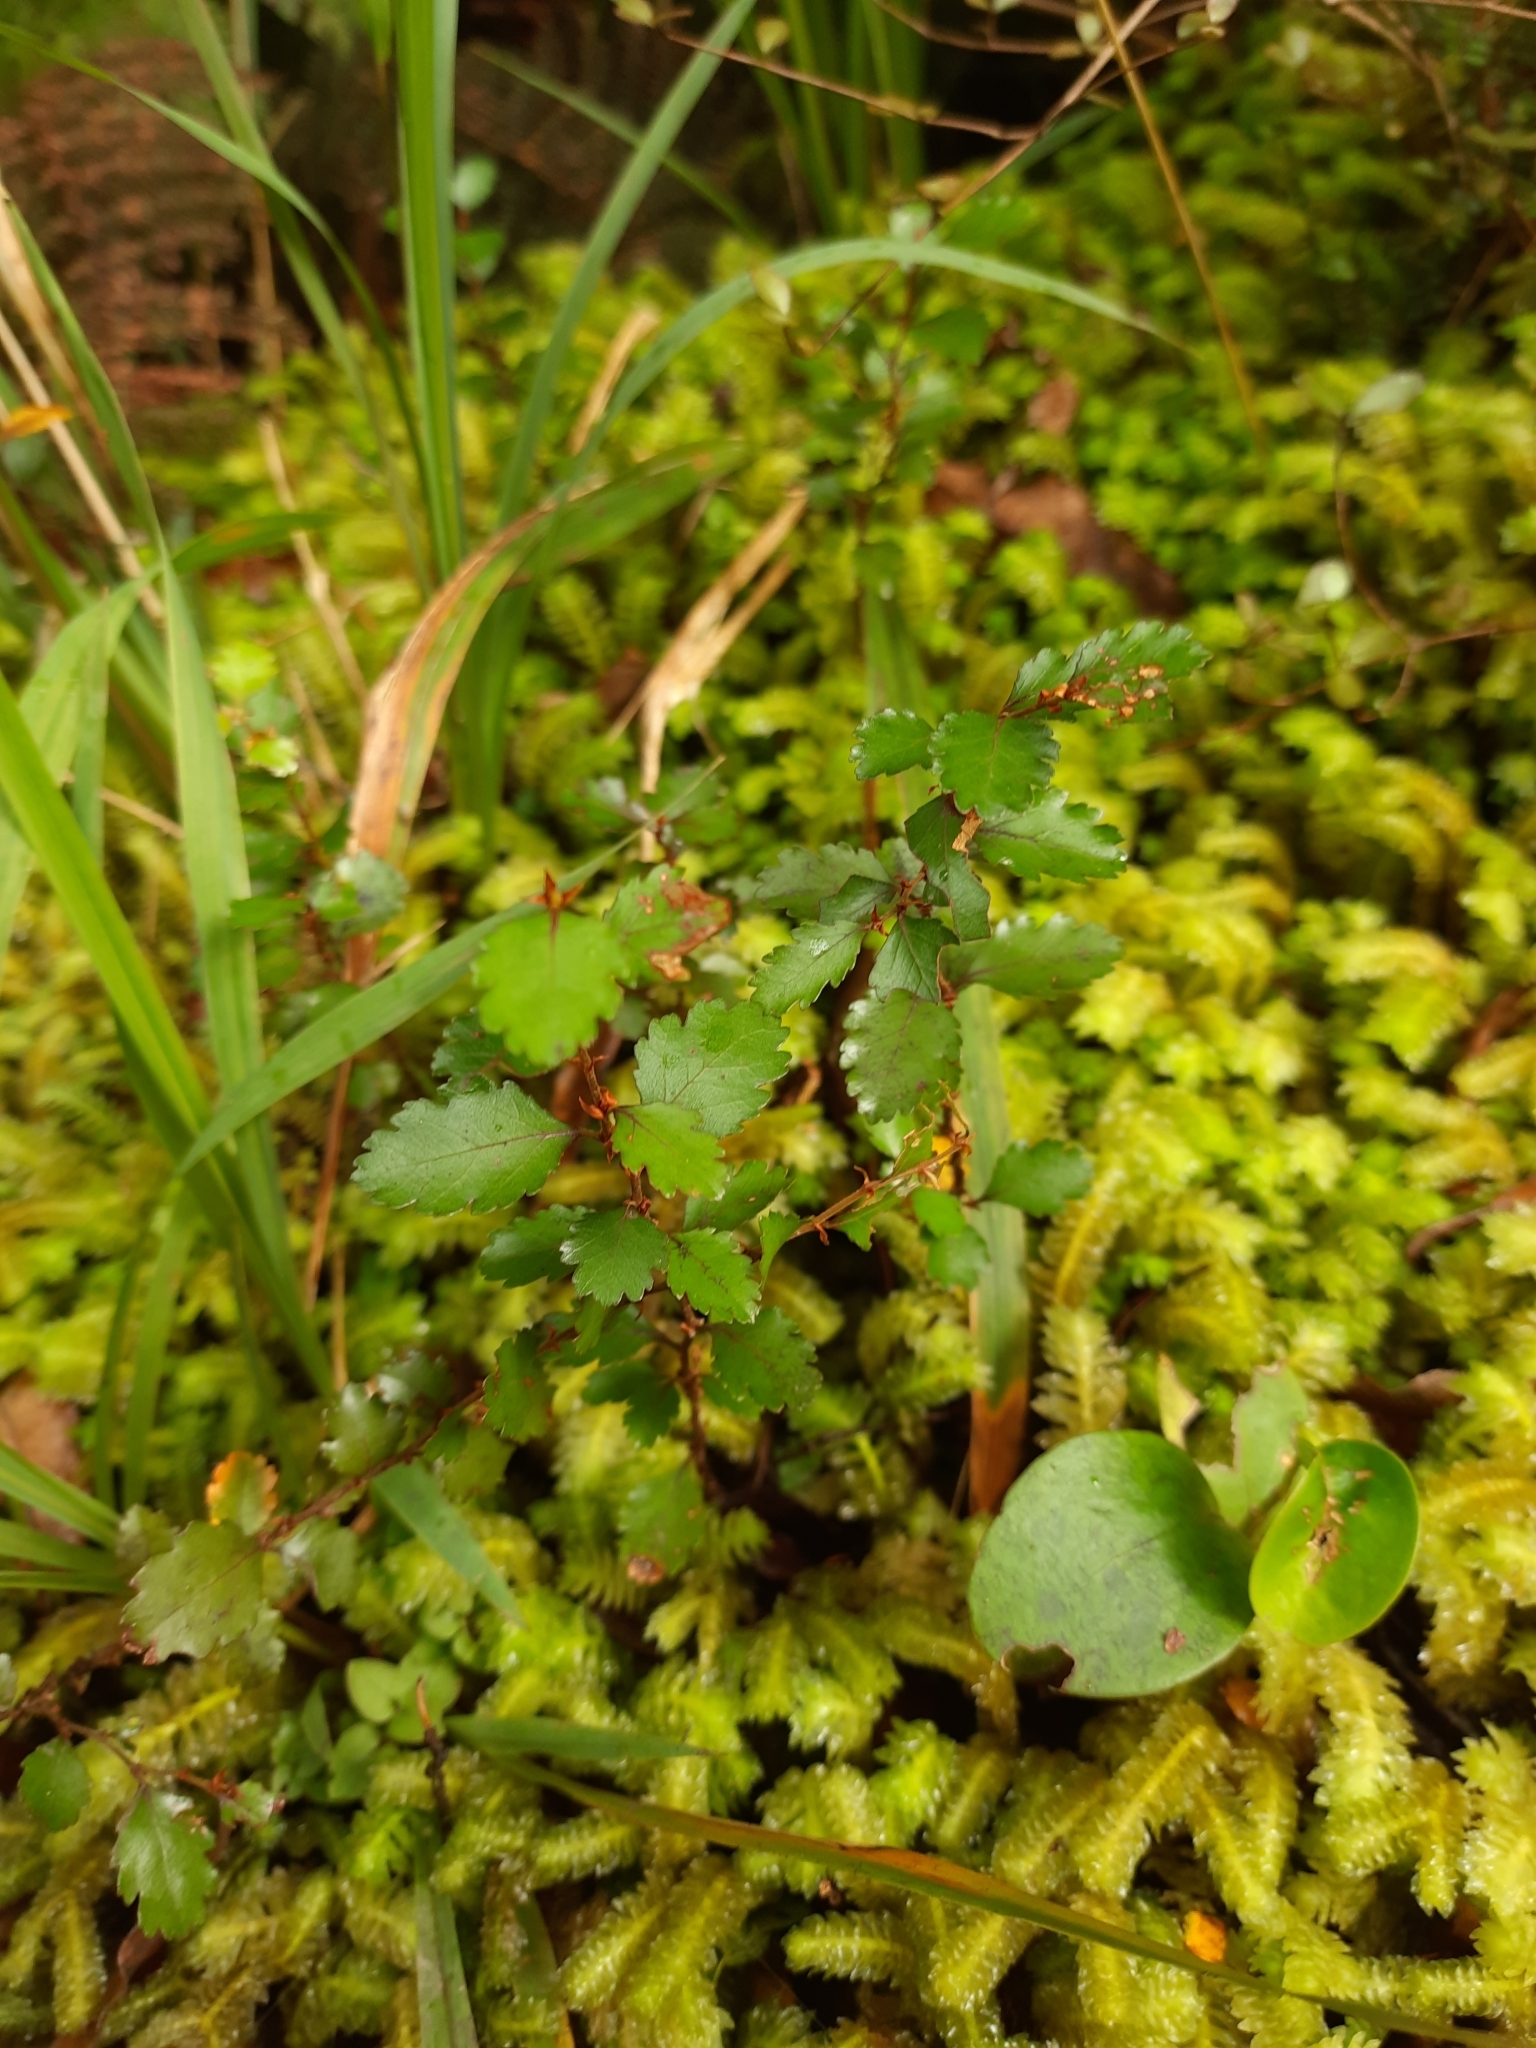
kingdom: Plantae
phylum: Tracheophyta
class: Magnoliopsida
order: Fagales
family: Nothofagaceae
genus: Nothofagus
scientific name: Nothofagus menziesii
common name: Silver beech
